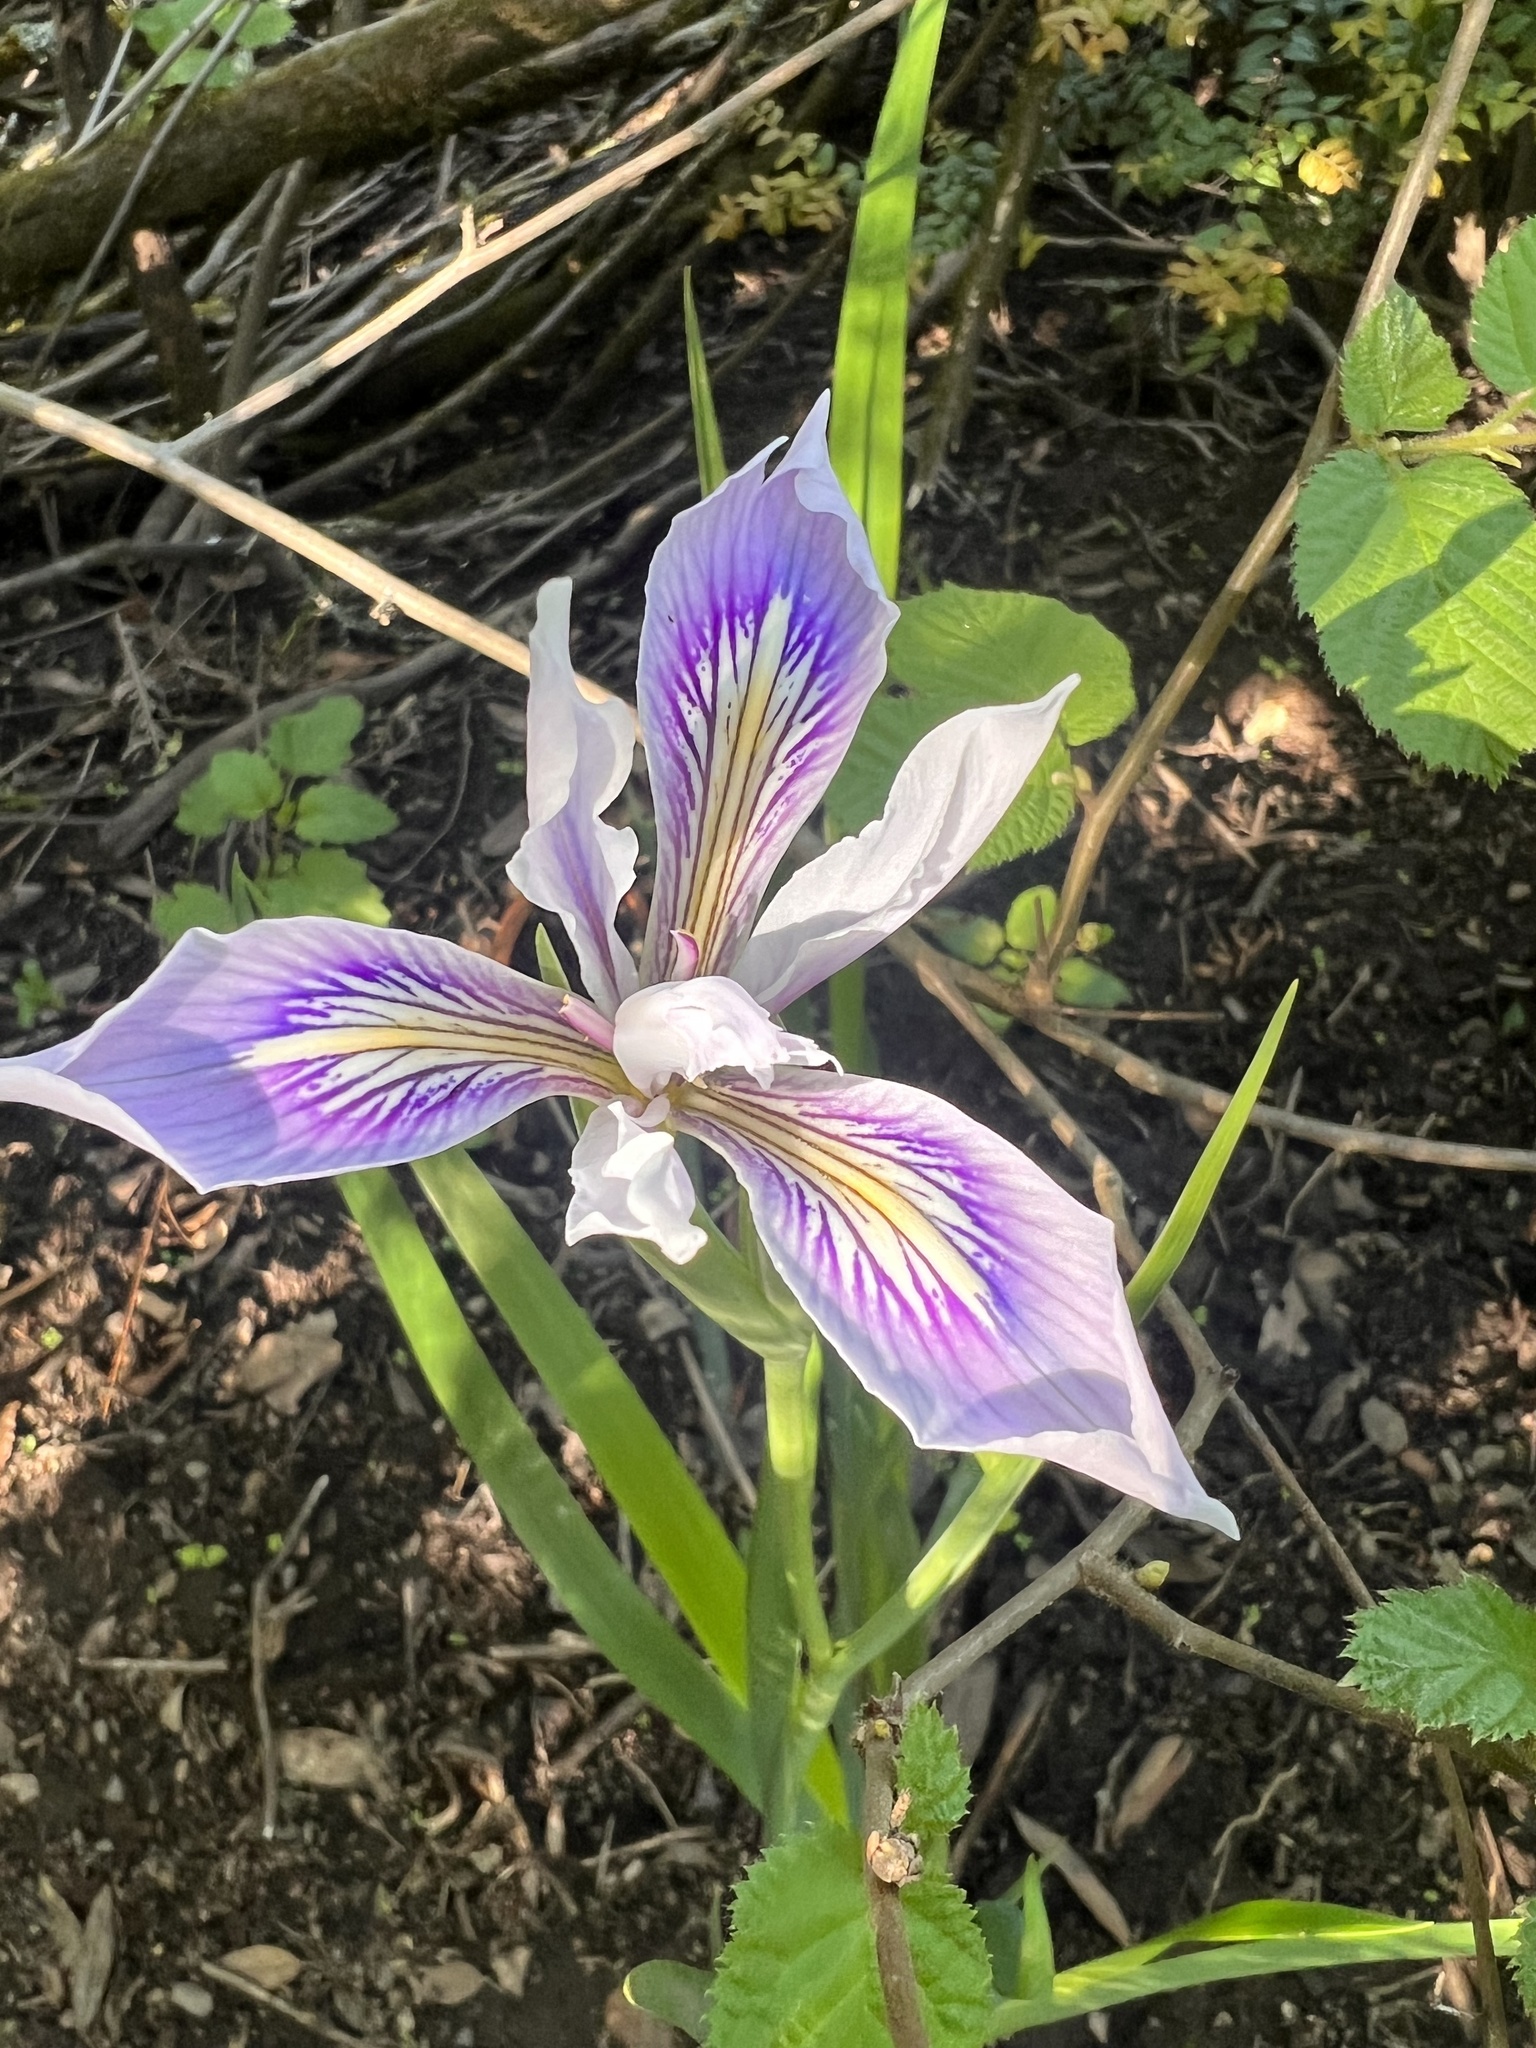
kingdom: Plantae
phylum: Tracheophyta
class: Liliopsida
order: Asparagales
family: Iridaceae
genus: Iris
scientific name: Iris douglasiana
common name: Marin iris
